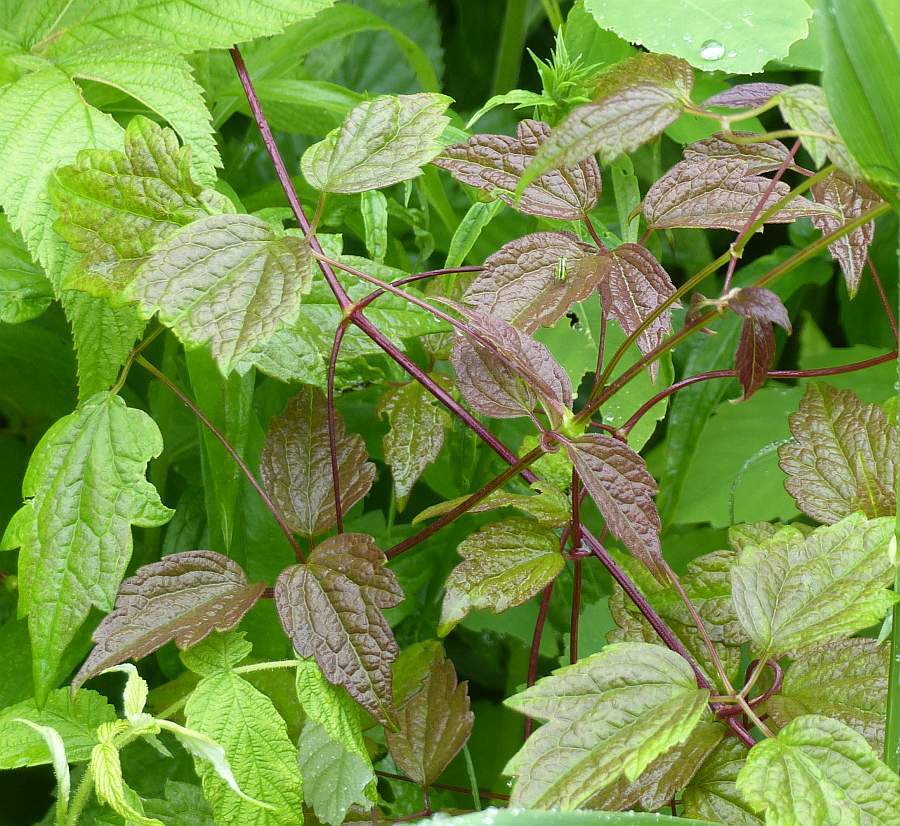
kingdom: Plantae
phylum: Tracheophyta
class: Magnoliopsida
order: Ranunculales
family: Ranunculaceae
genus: Clematis
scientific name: Clematis virginiana
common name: Virgin's-bower
